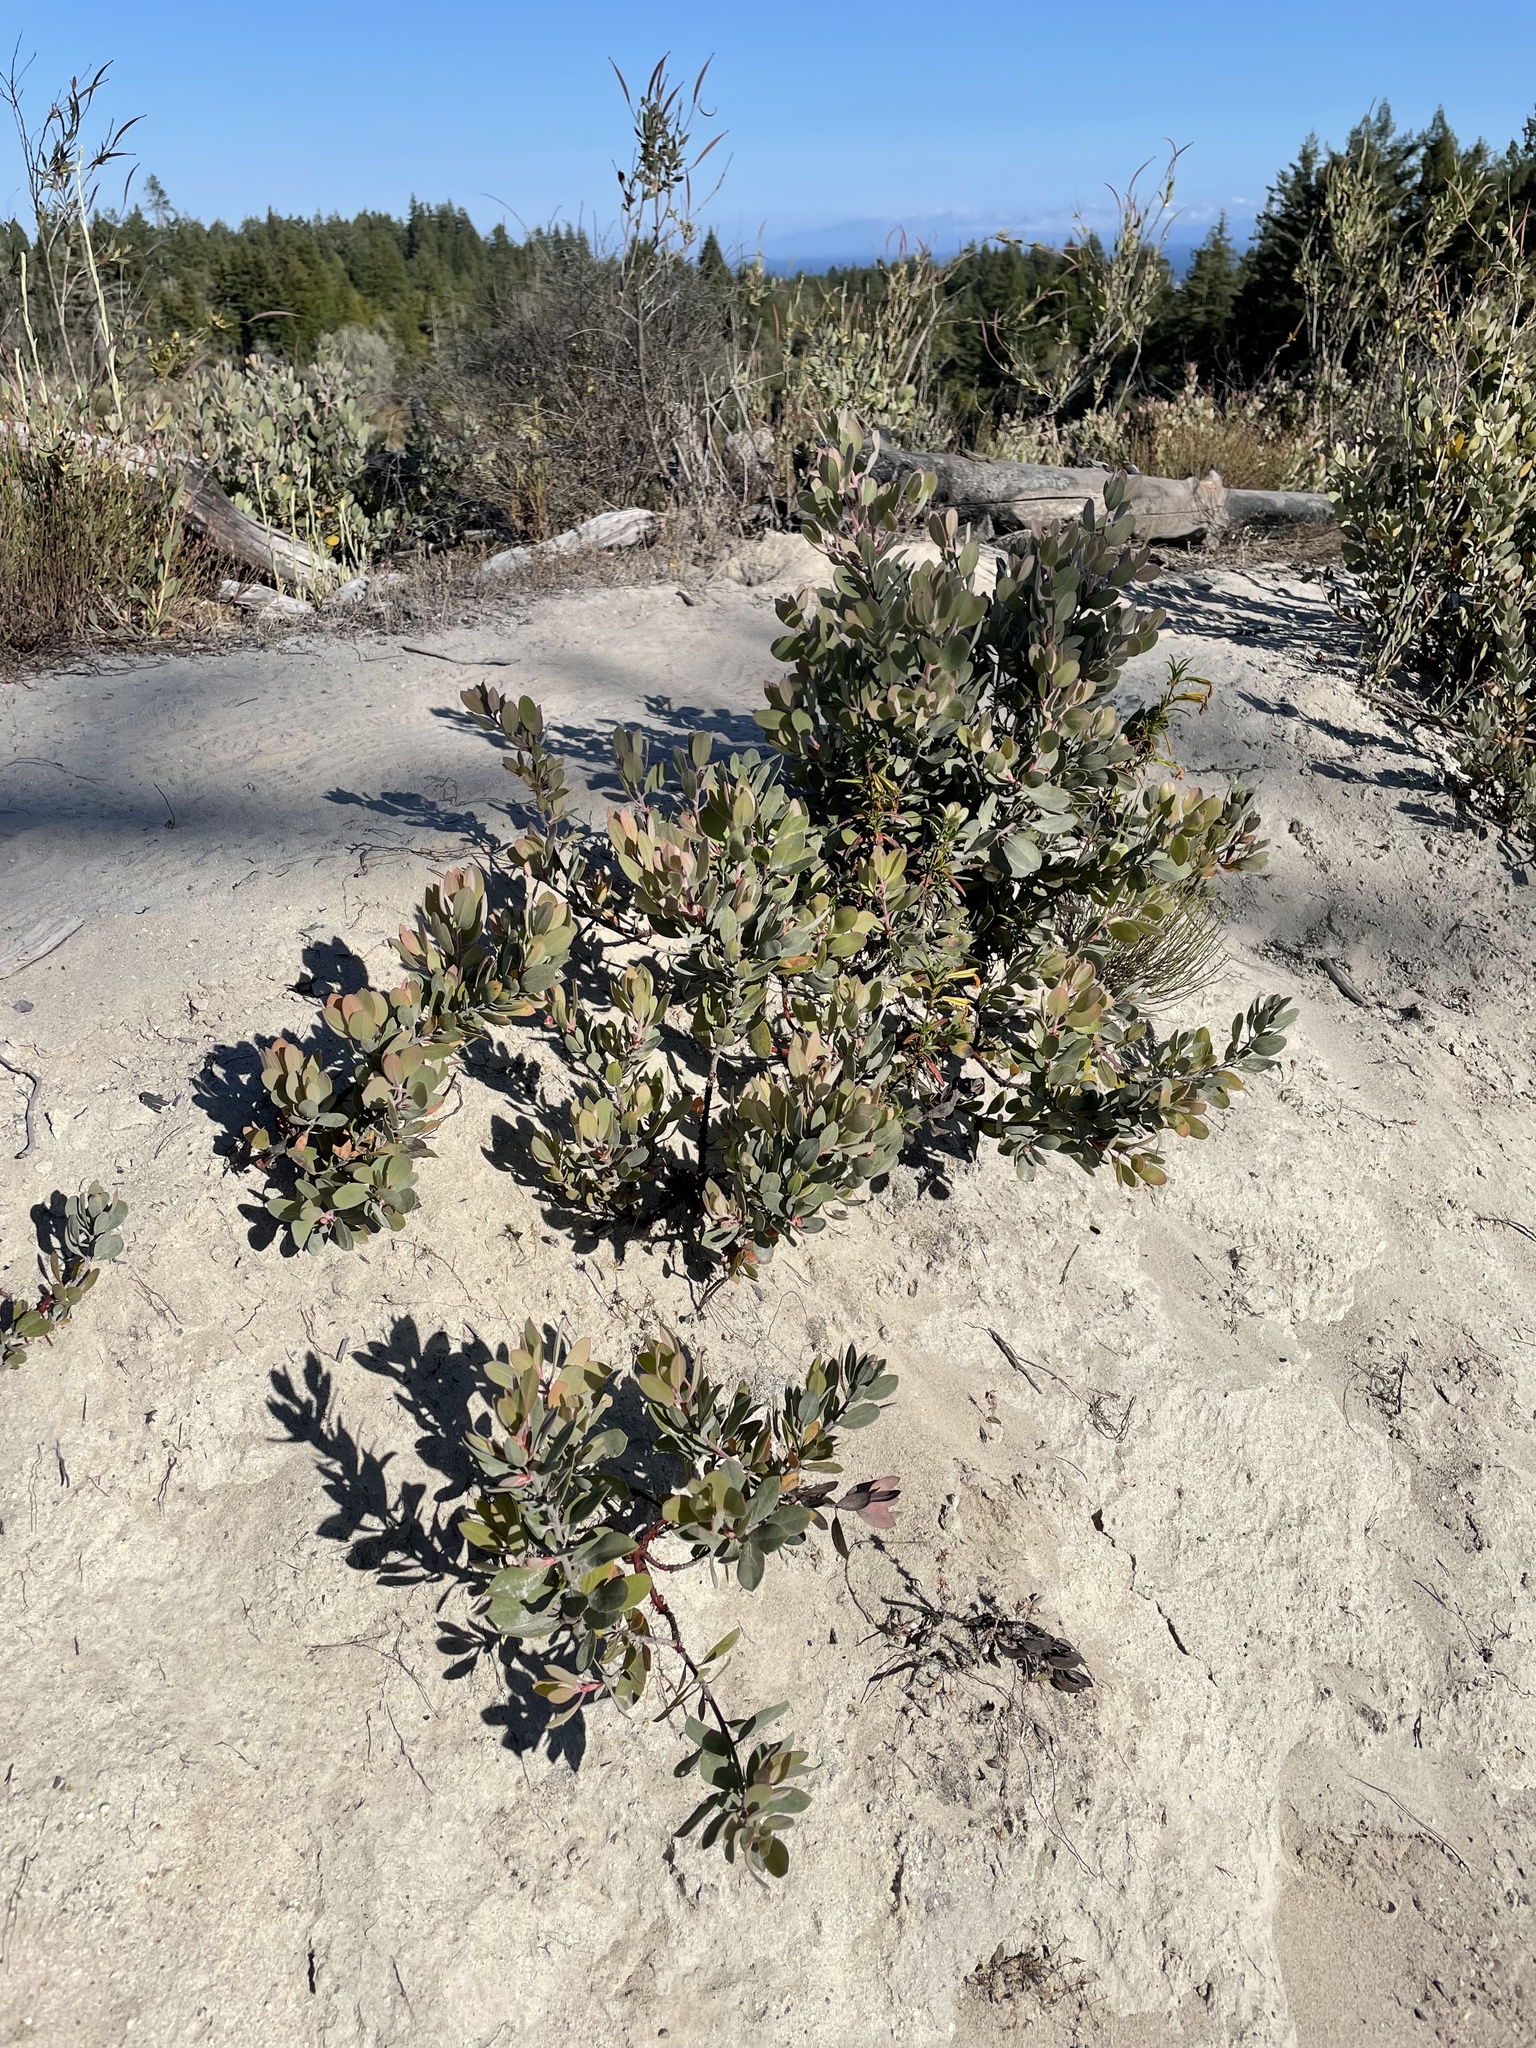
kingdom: Plantae
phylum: Tracheophyta
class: Magnoliopsida
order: Ericales
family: Ericaceae
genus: Arctostaphylos
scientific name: Arctostaphylos silvicola
